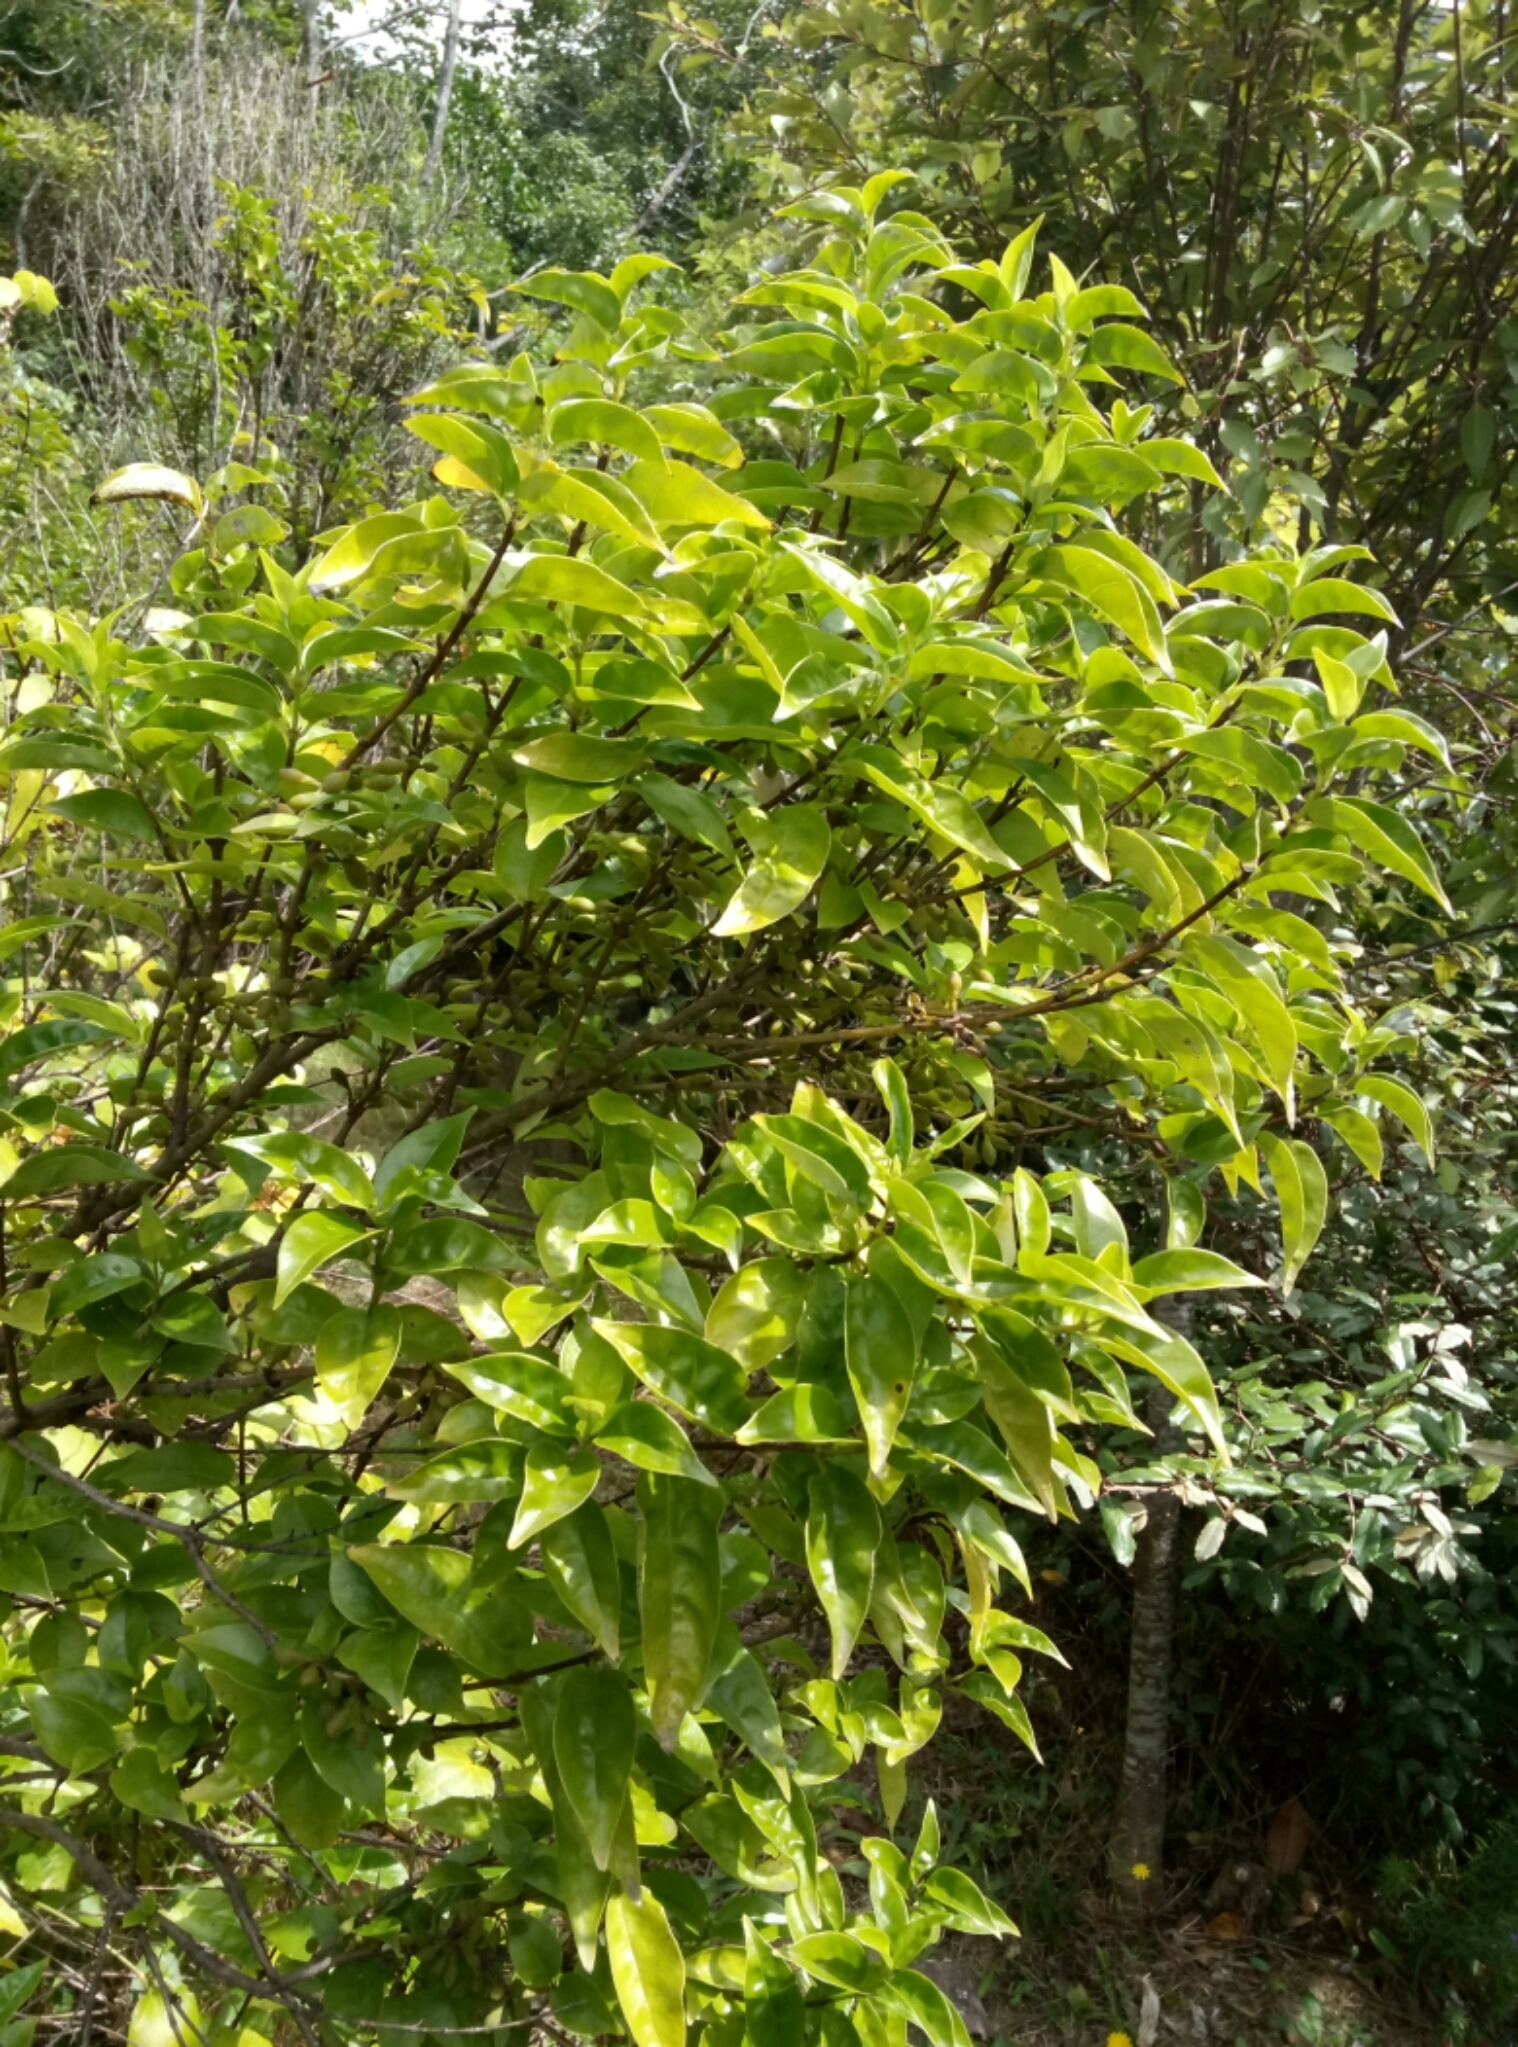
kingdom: Plantae
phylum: Tracheophyta
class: Magnoliopsida
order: Gentianales
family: Loganiaceae
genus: Geniostoma
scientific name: Geniostoma ligustrifolium
